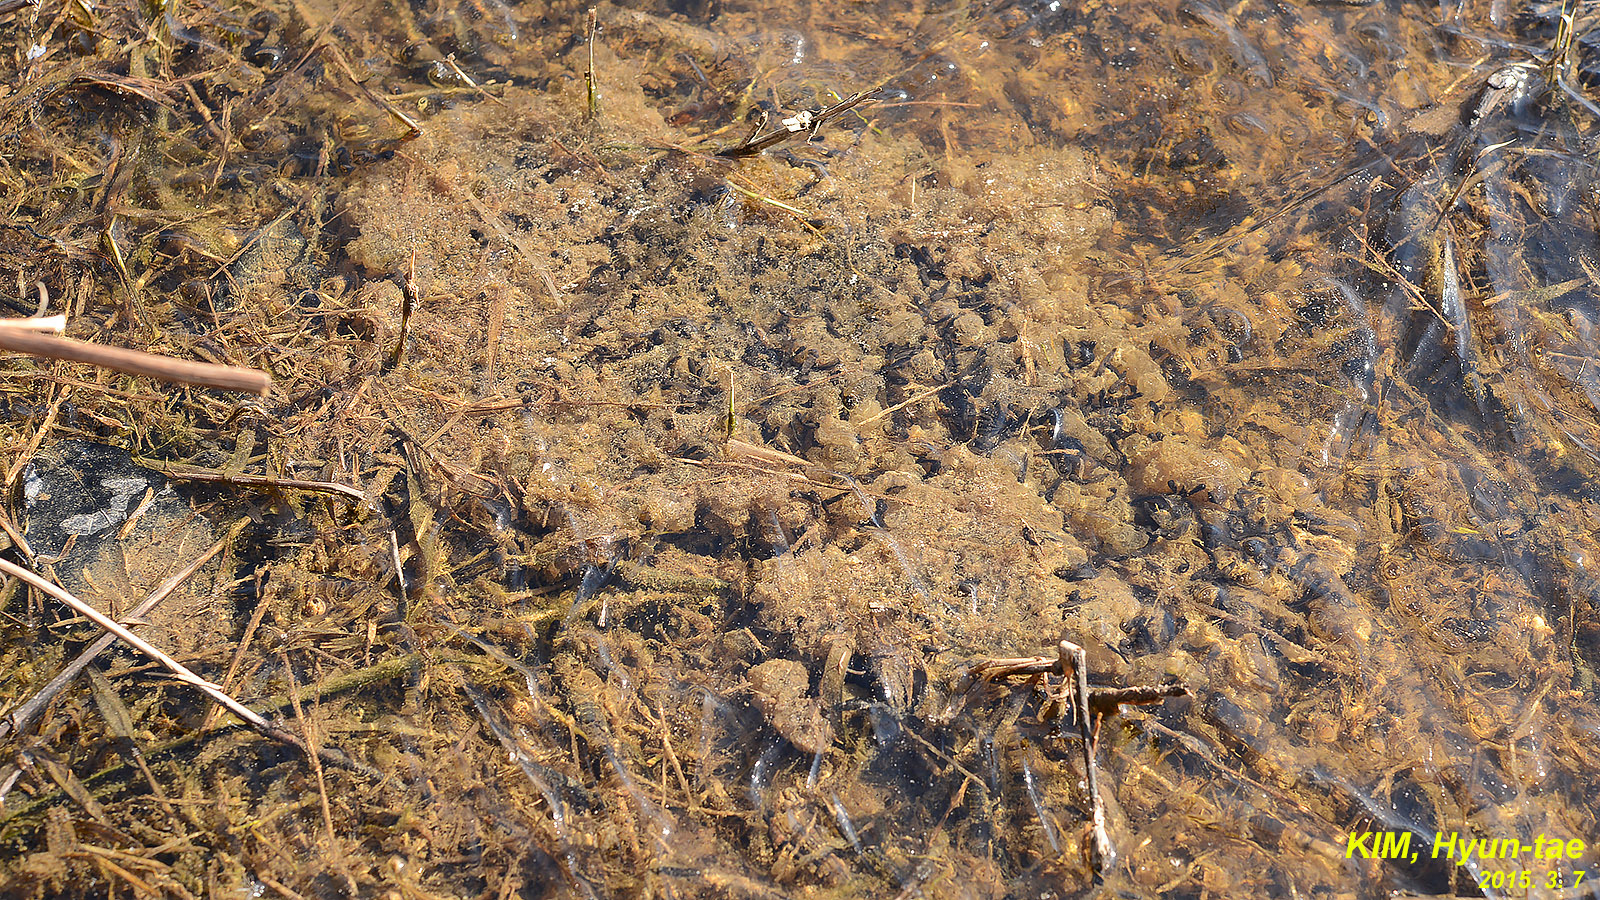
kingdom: Animalia
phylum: Chordata
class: Amphibia
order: Anura
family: Ranidae
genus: Rana
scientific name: Rana uenoi
